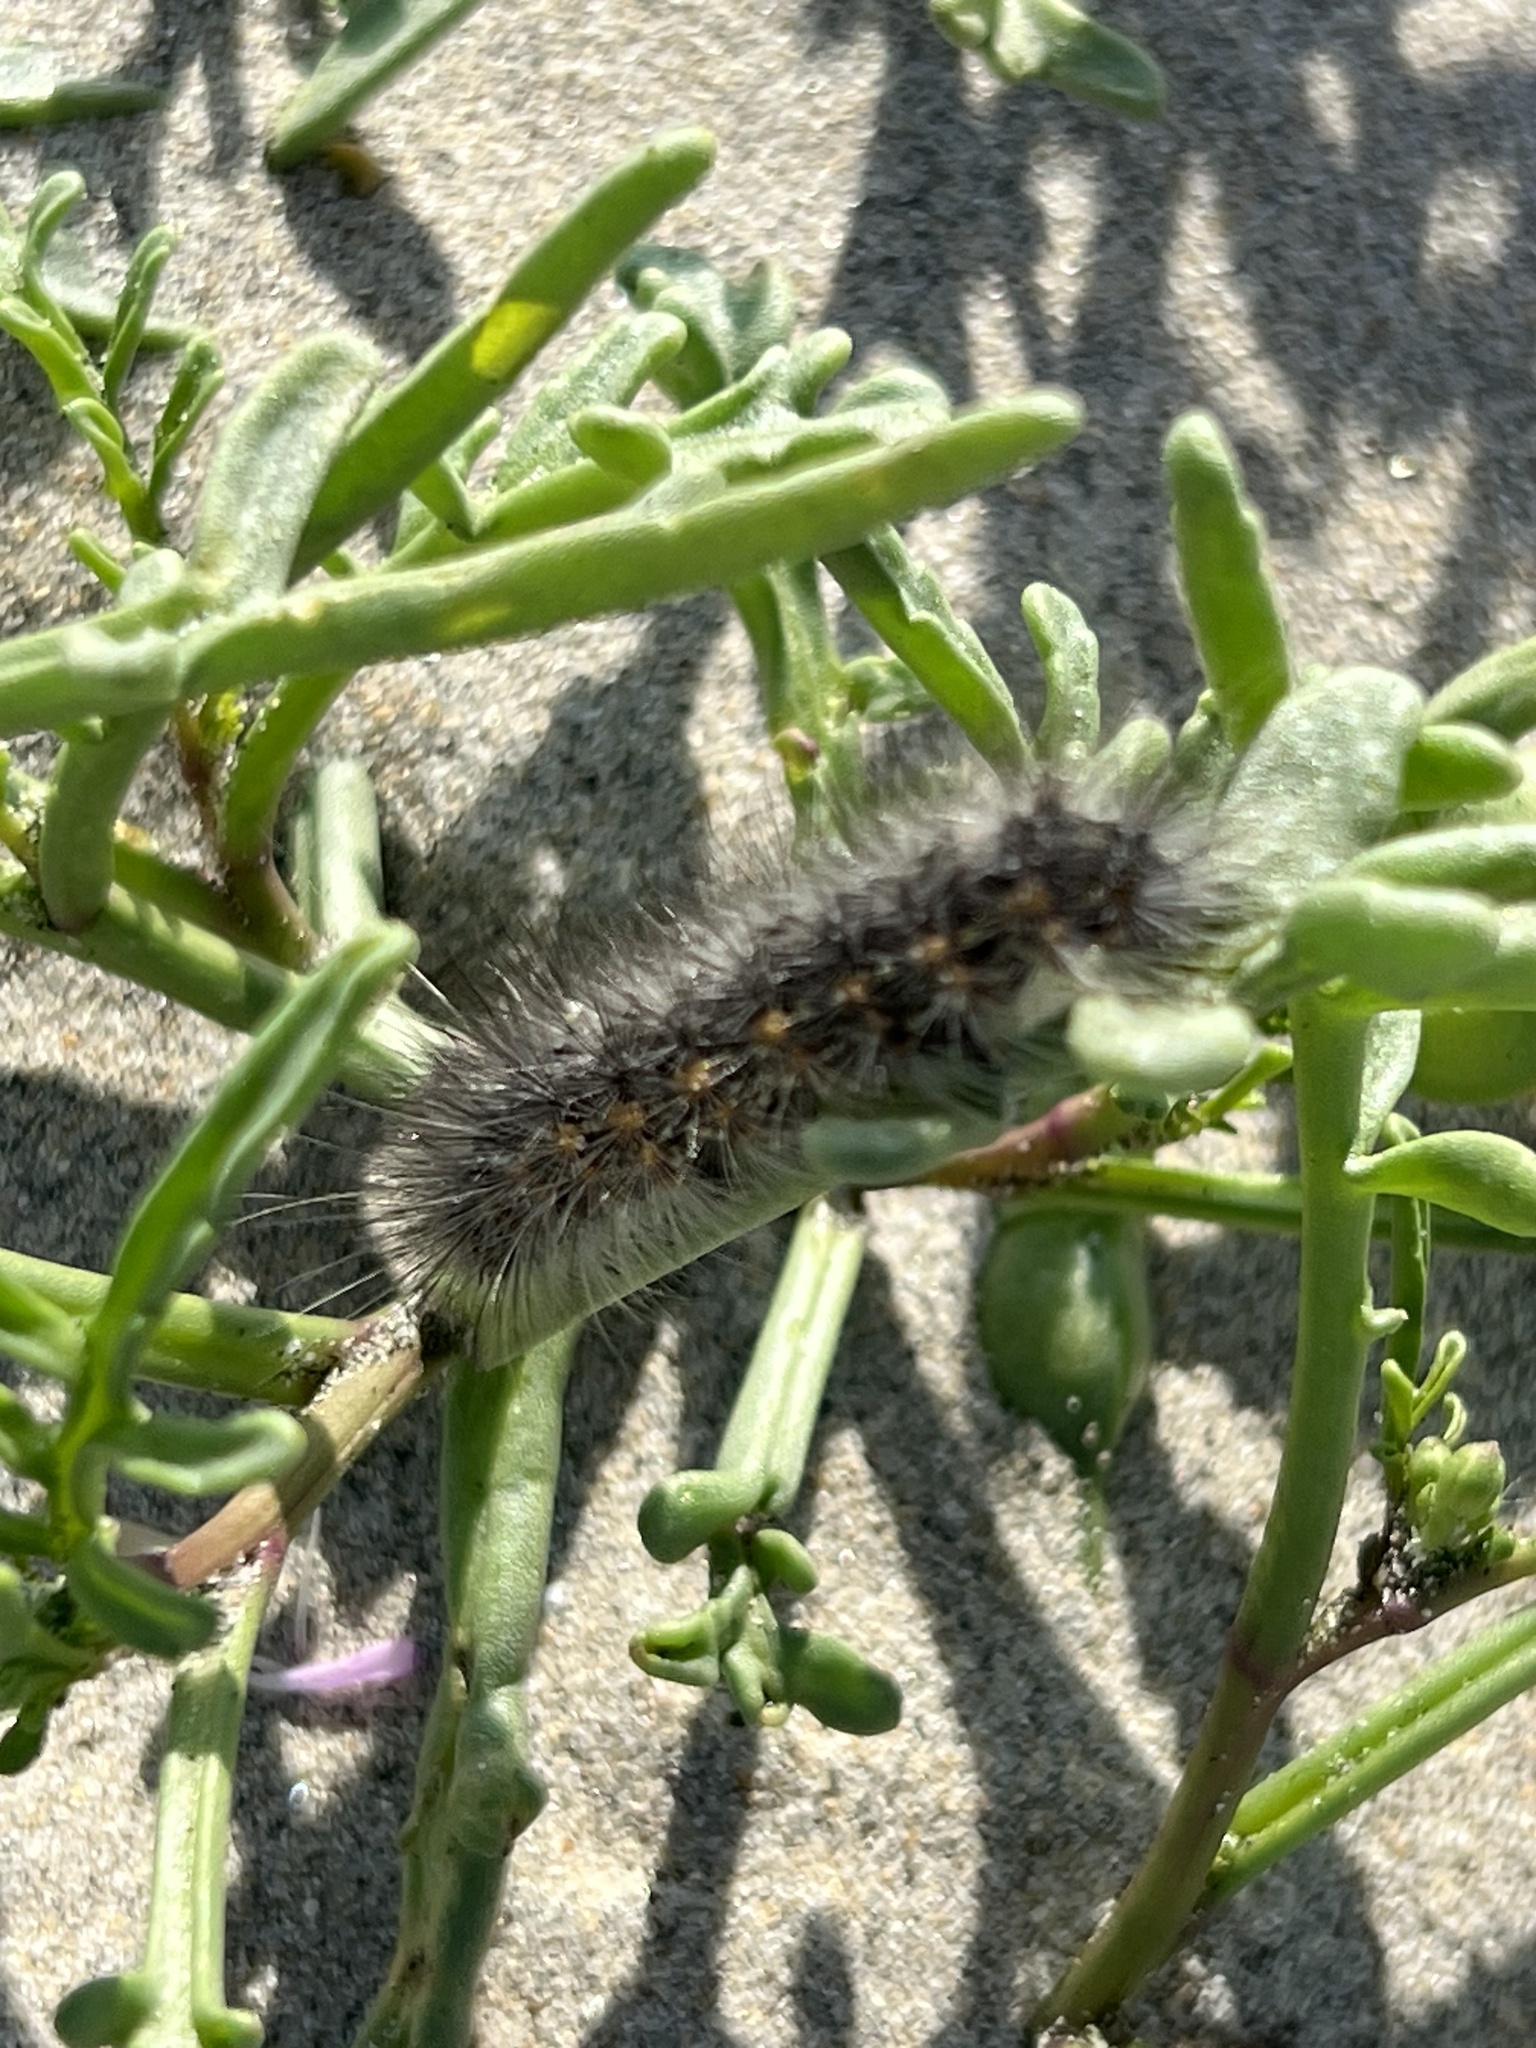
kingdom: Animalia
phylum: Arthropoda
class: Insecta
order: Lepidoptera
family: Erebidae
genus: Estigmene
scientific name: Estigmene acrea
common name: Salt marsh moth
